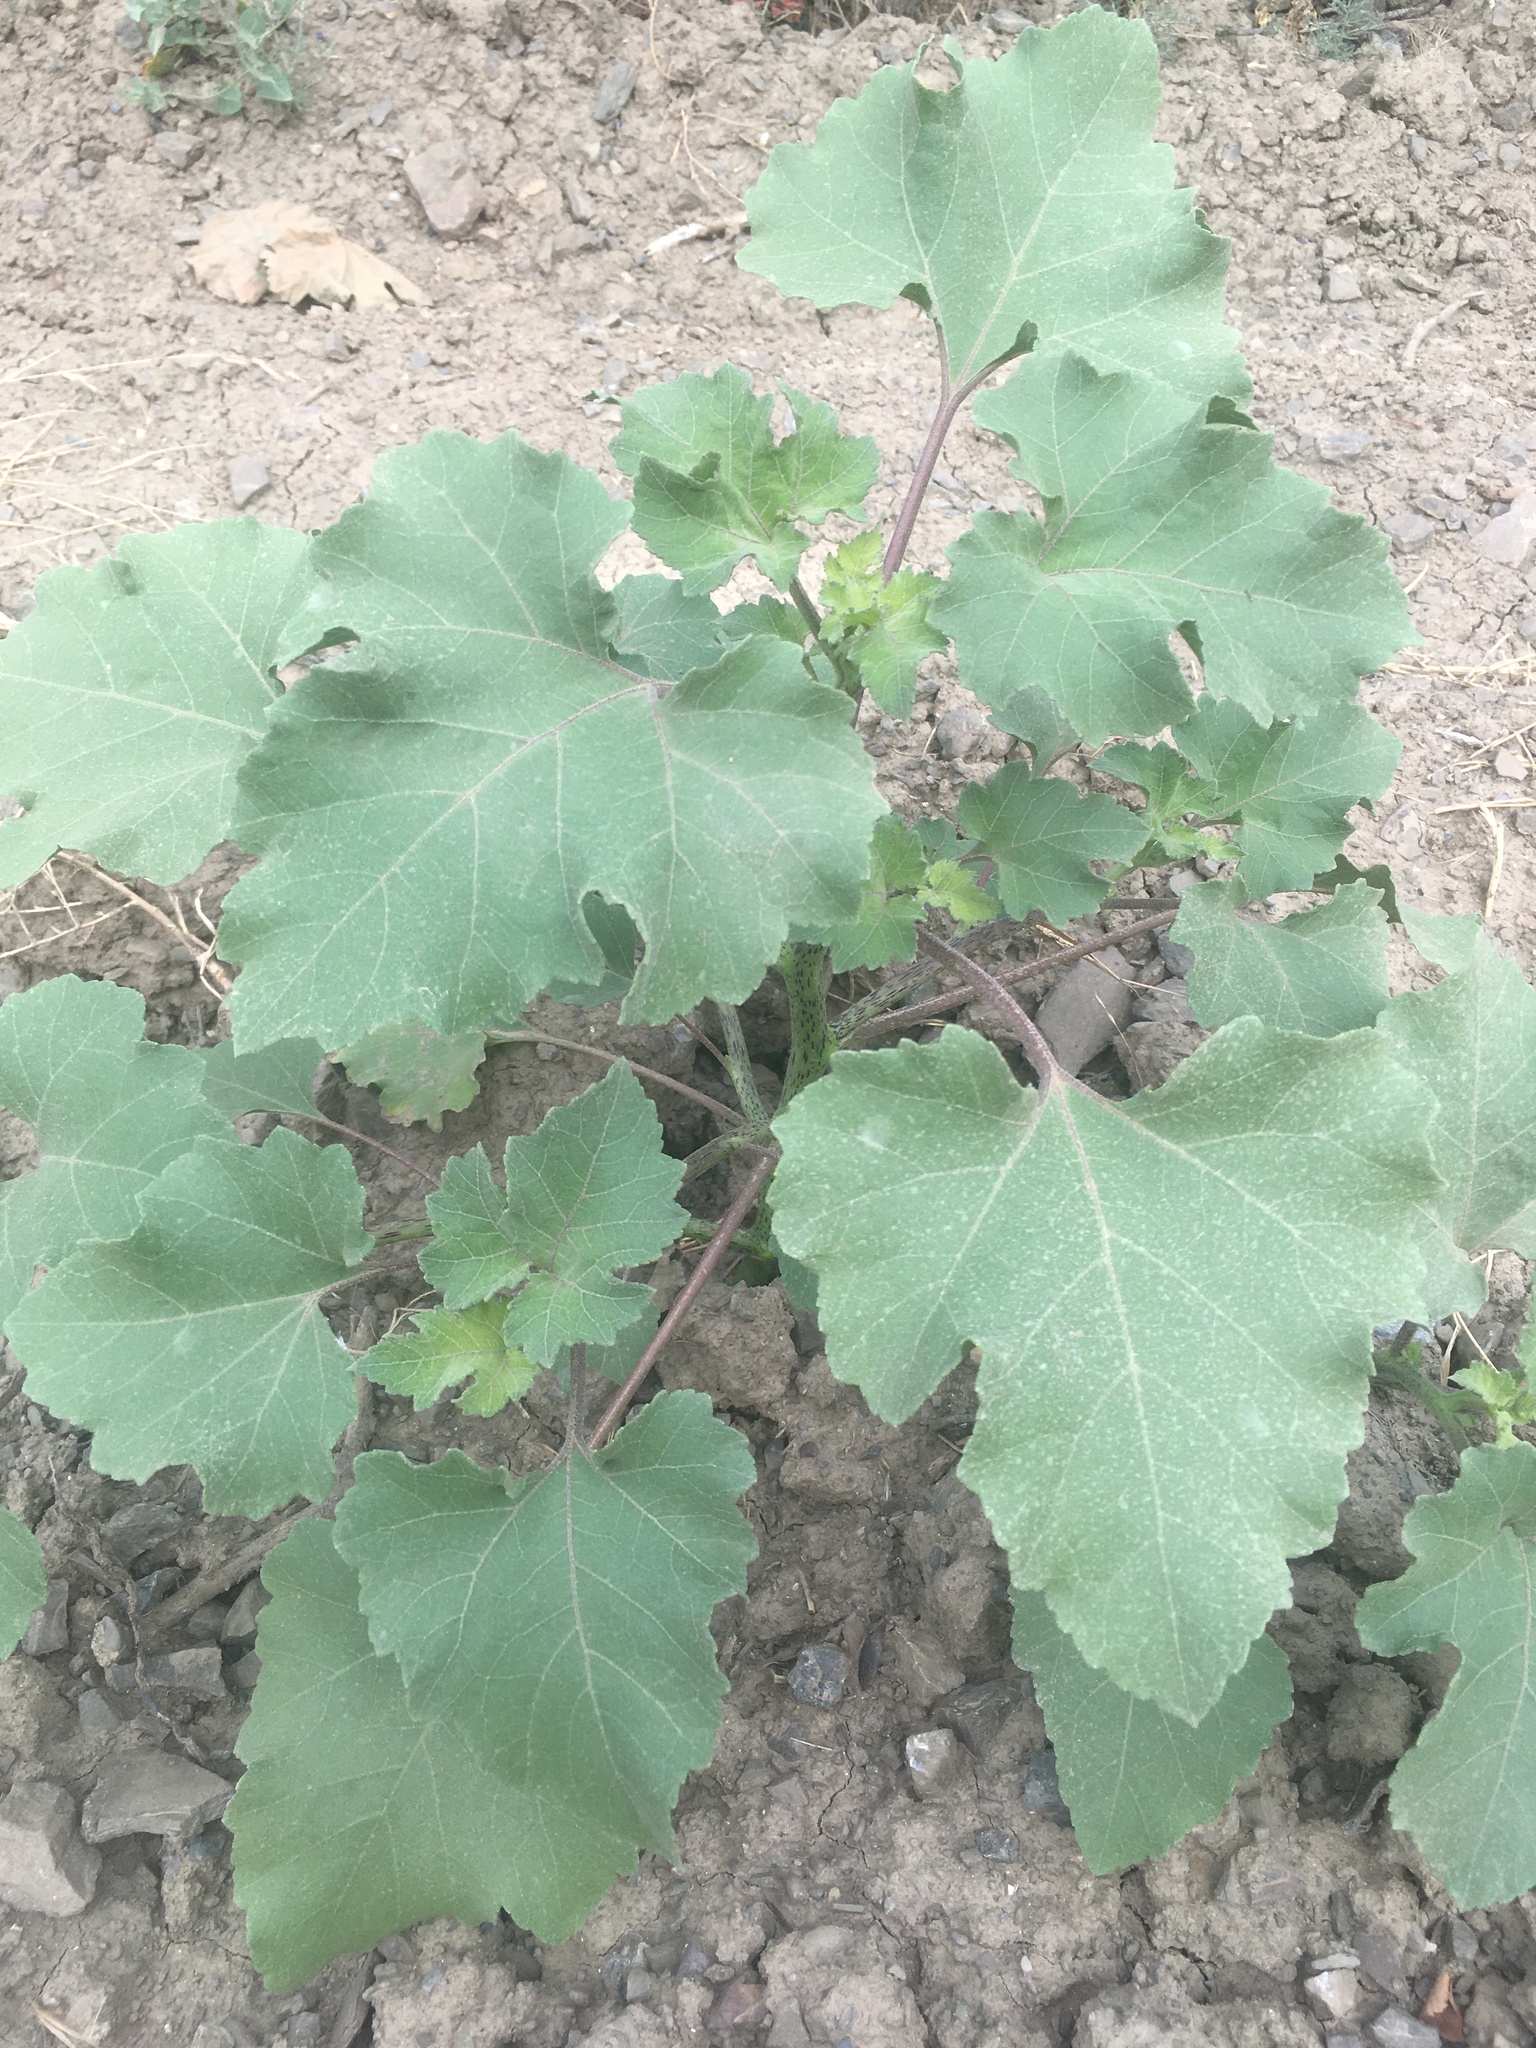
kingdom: Plantae
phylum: Tracheophyta
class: Magnoliopsida
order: Asterales
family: Asteraceae
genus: Xanthium
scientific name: Xanthium orientale
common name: Californian burr
